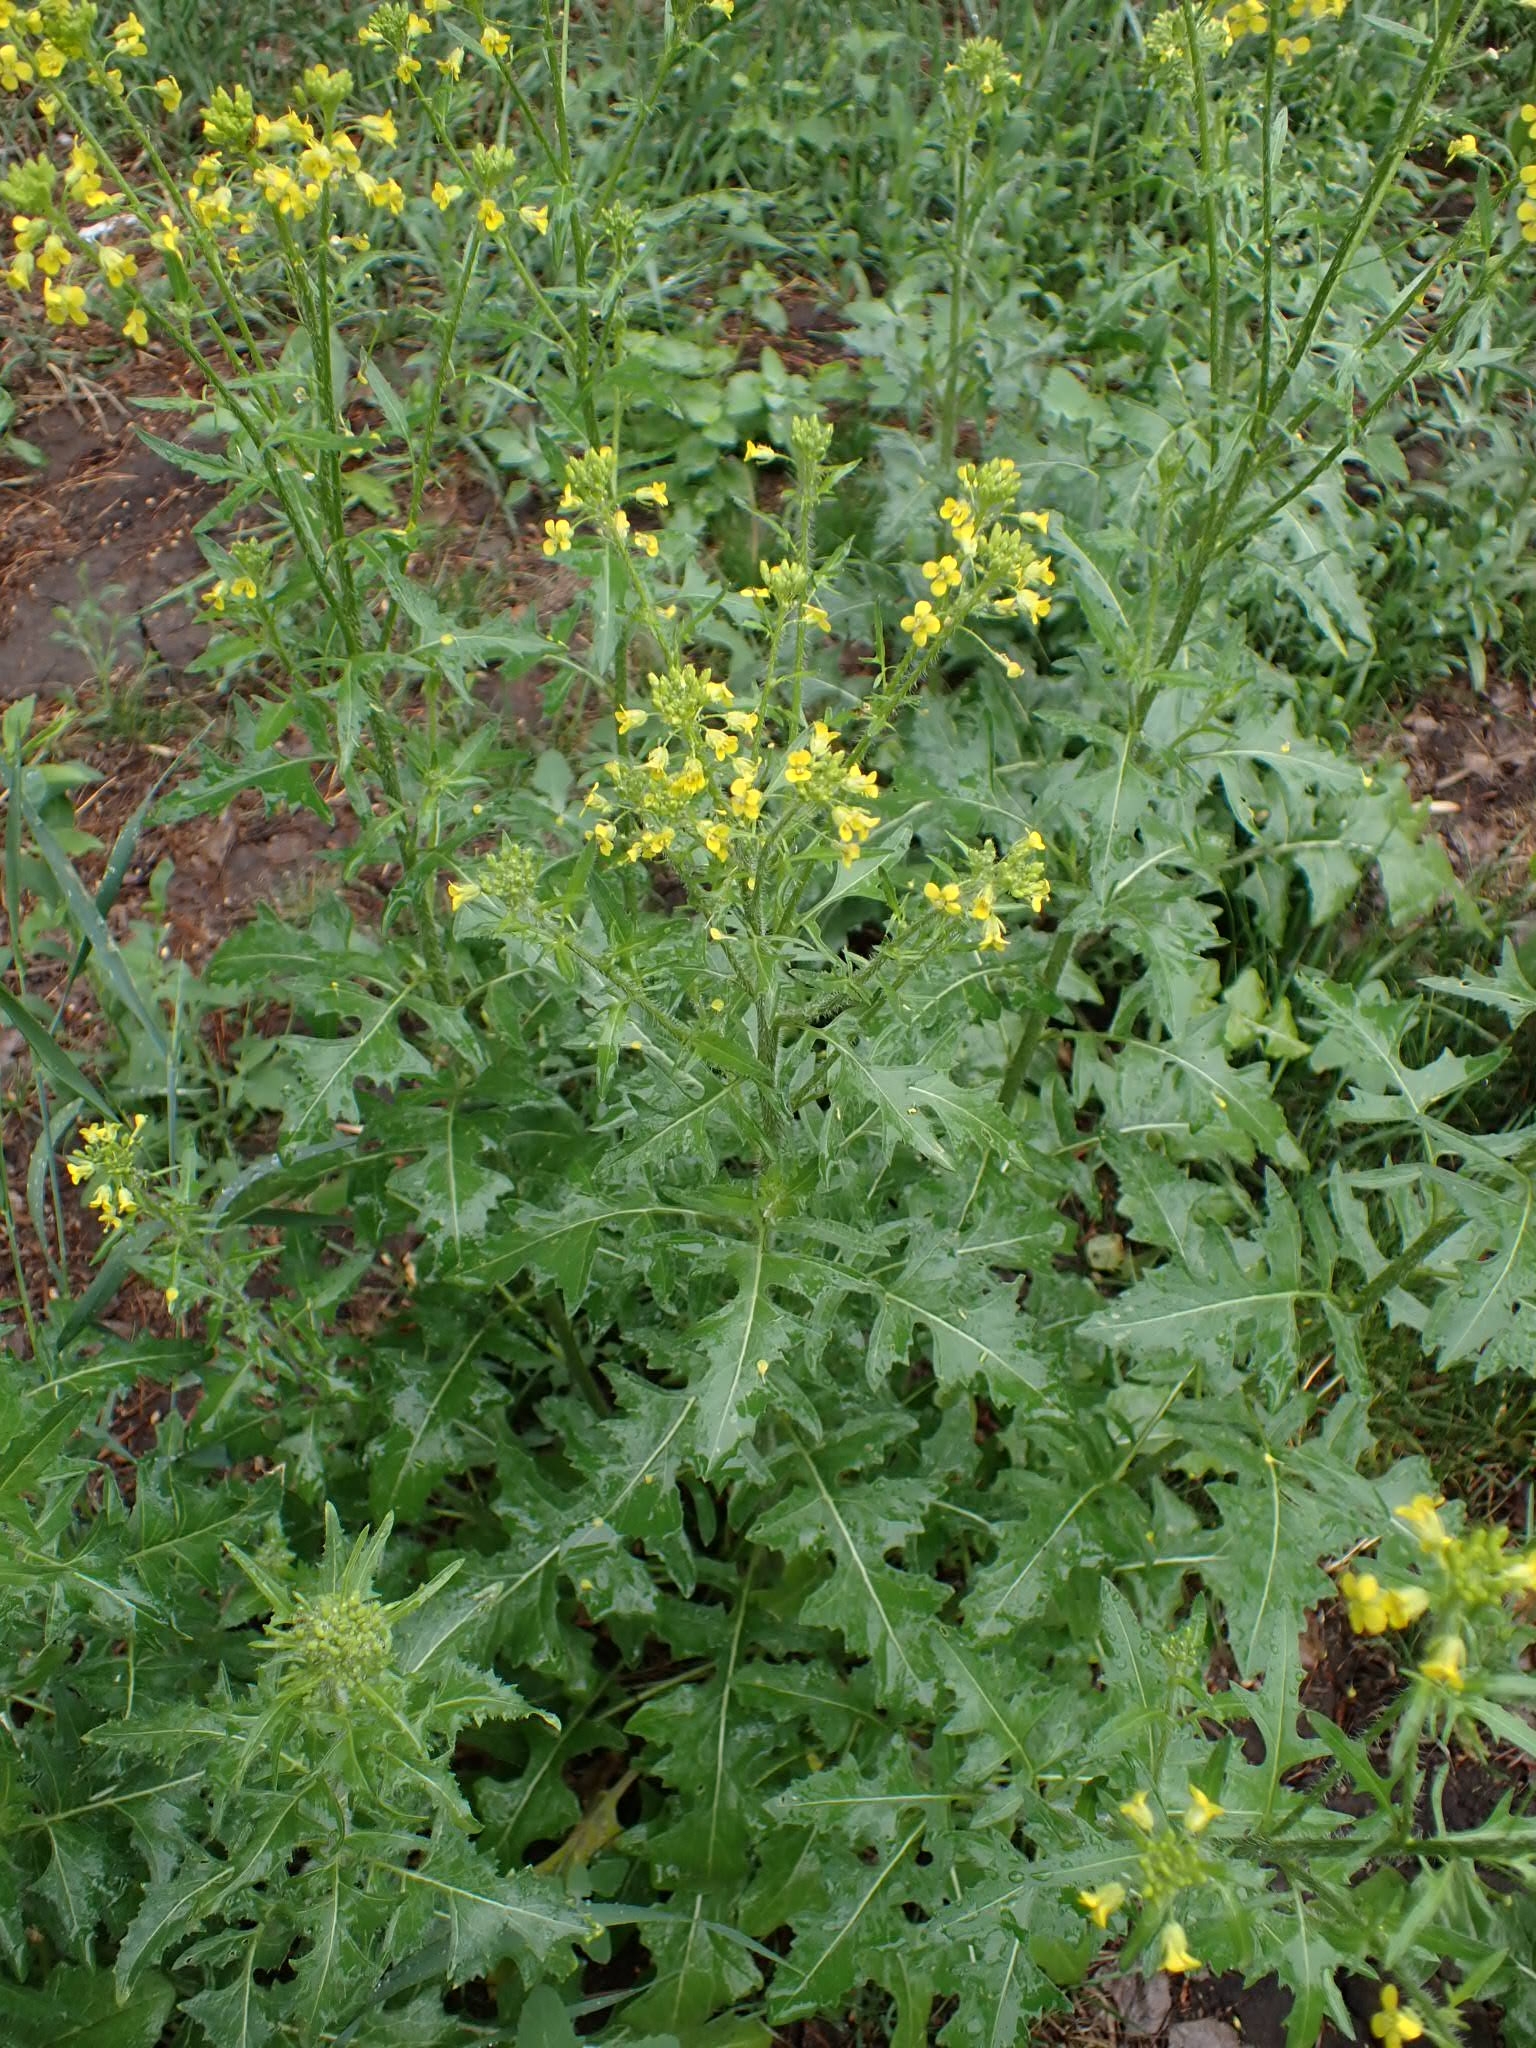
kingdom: Plantae
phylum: Tracheophyta
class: Magnoliopsida
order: Brassicales
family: Brassicaceae
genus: Sisymbrium
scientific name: Sisymbrium loeselii
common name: False london-rocket
